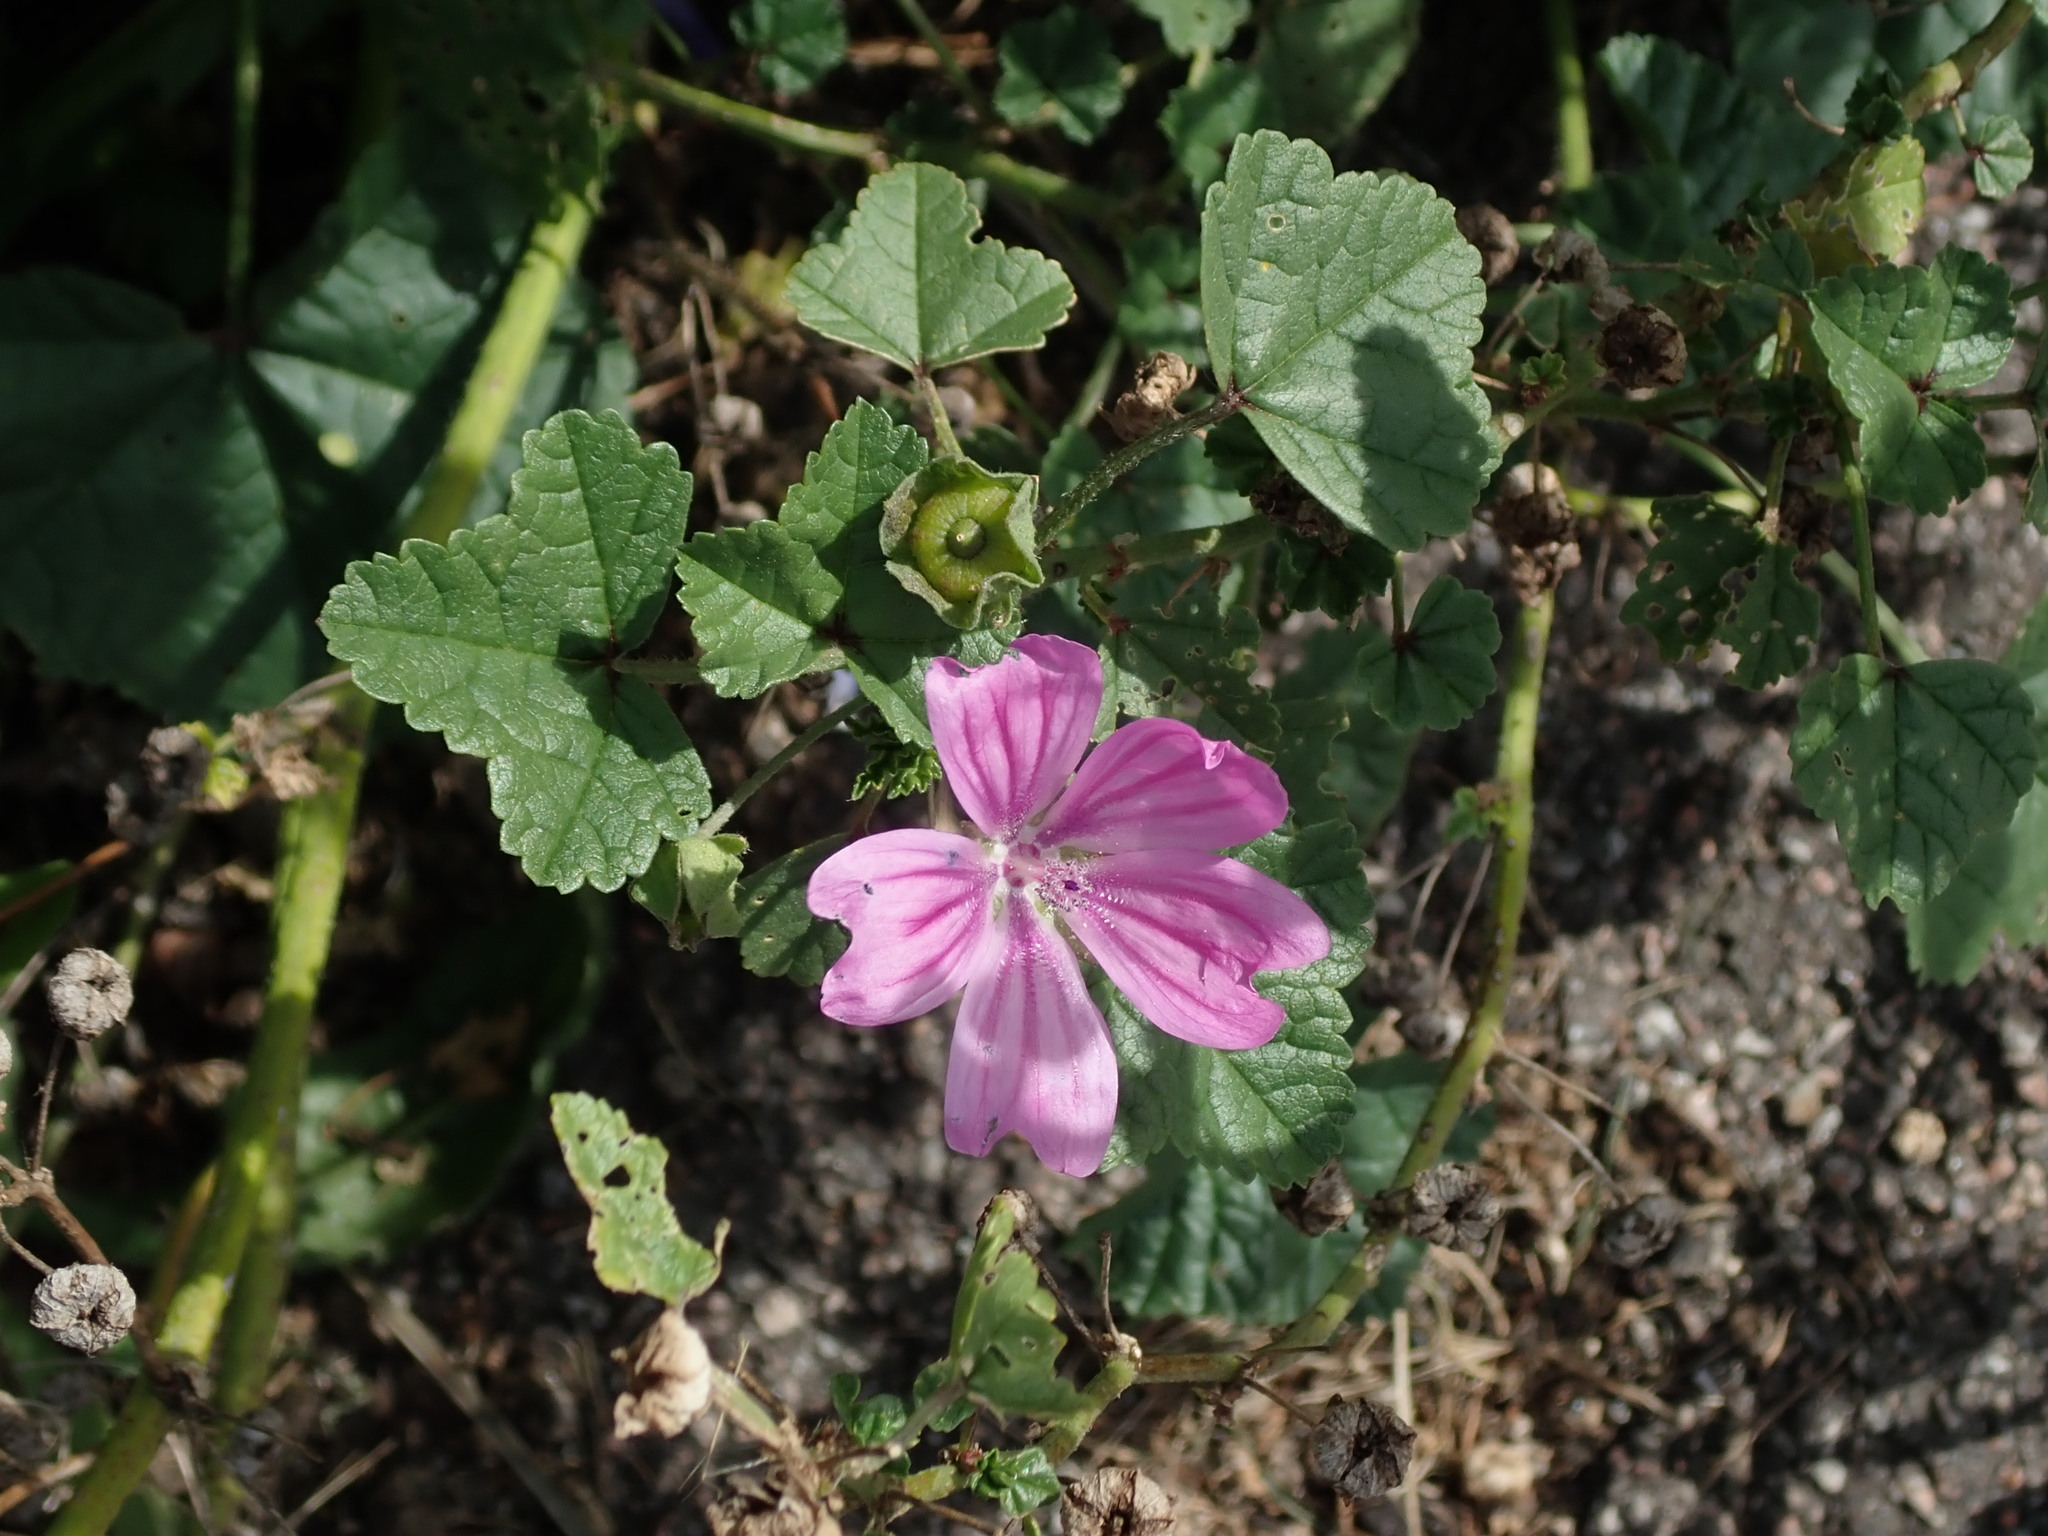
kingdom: Plantae
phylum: Tracheophyta
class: Magnoliopsida
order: Malvales
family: Malvaceae
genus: Malva
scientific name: Malva sylvestris
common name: Common mallow
